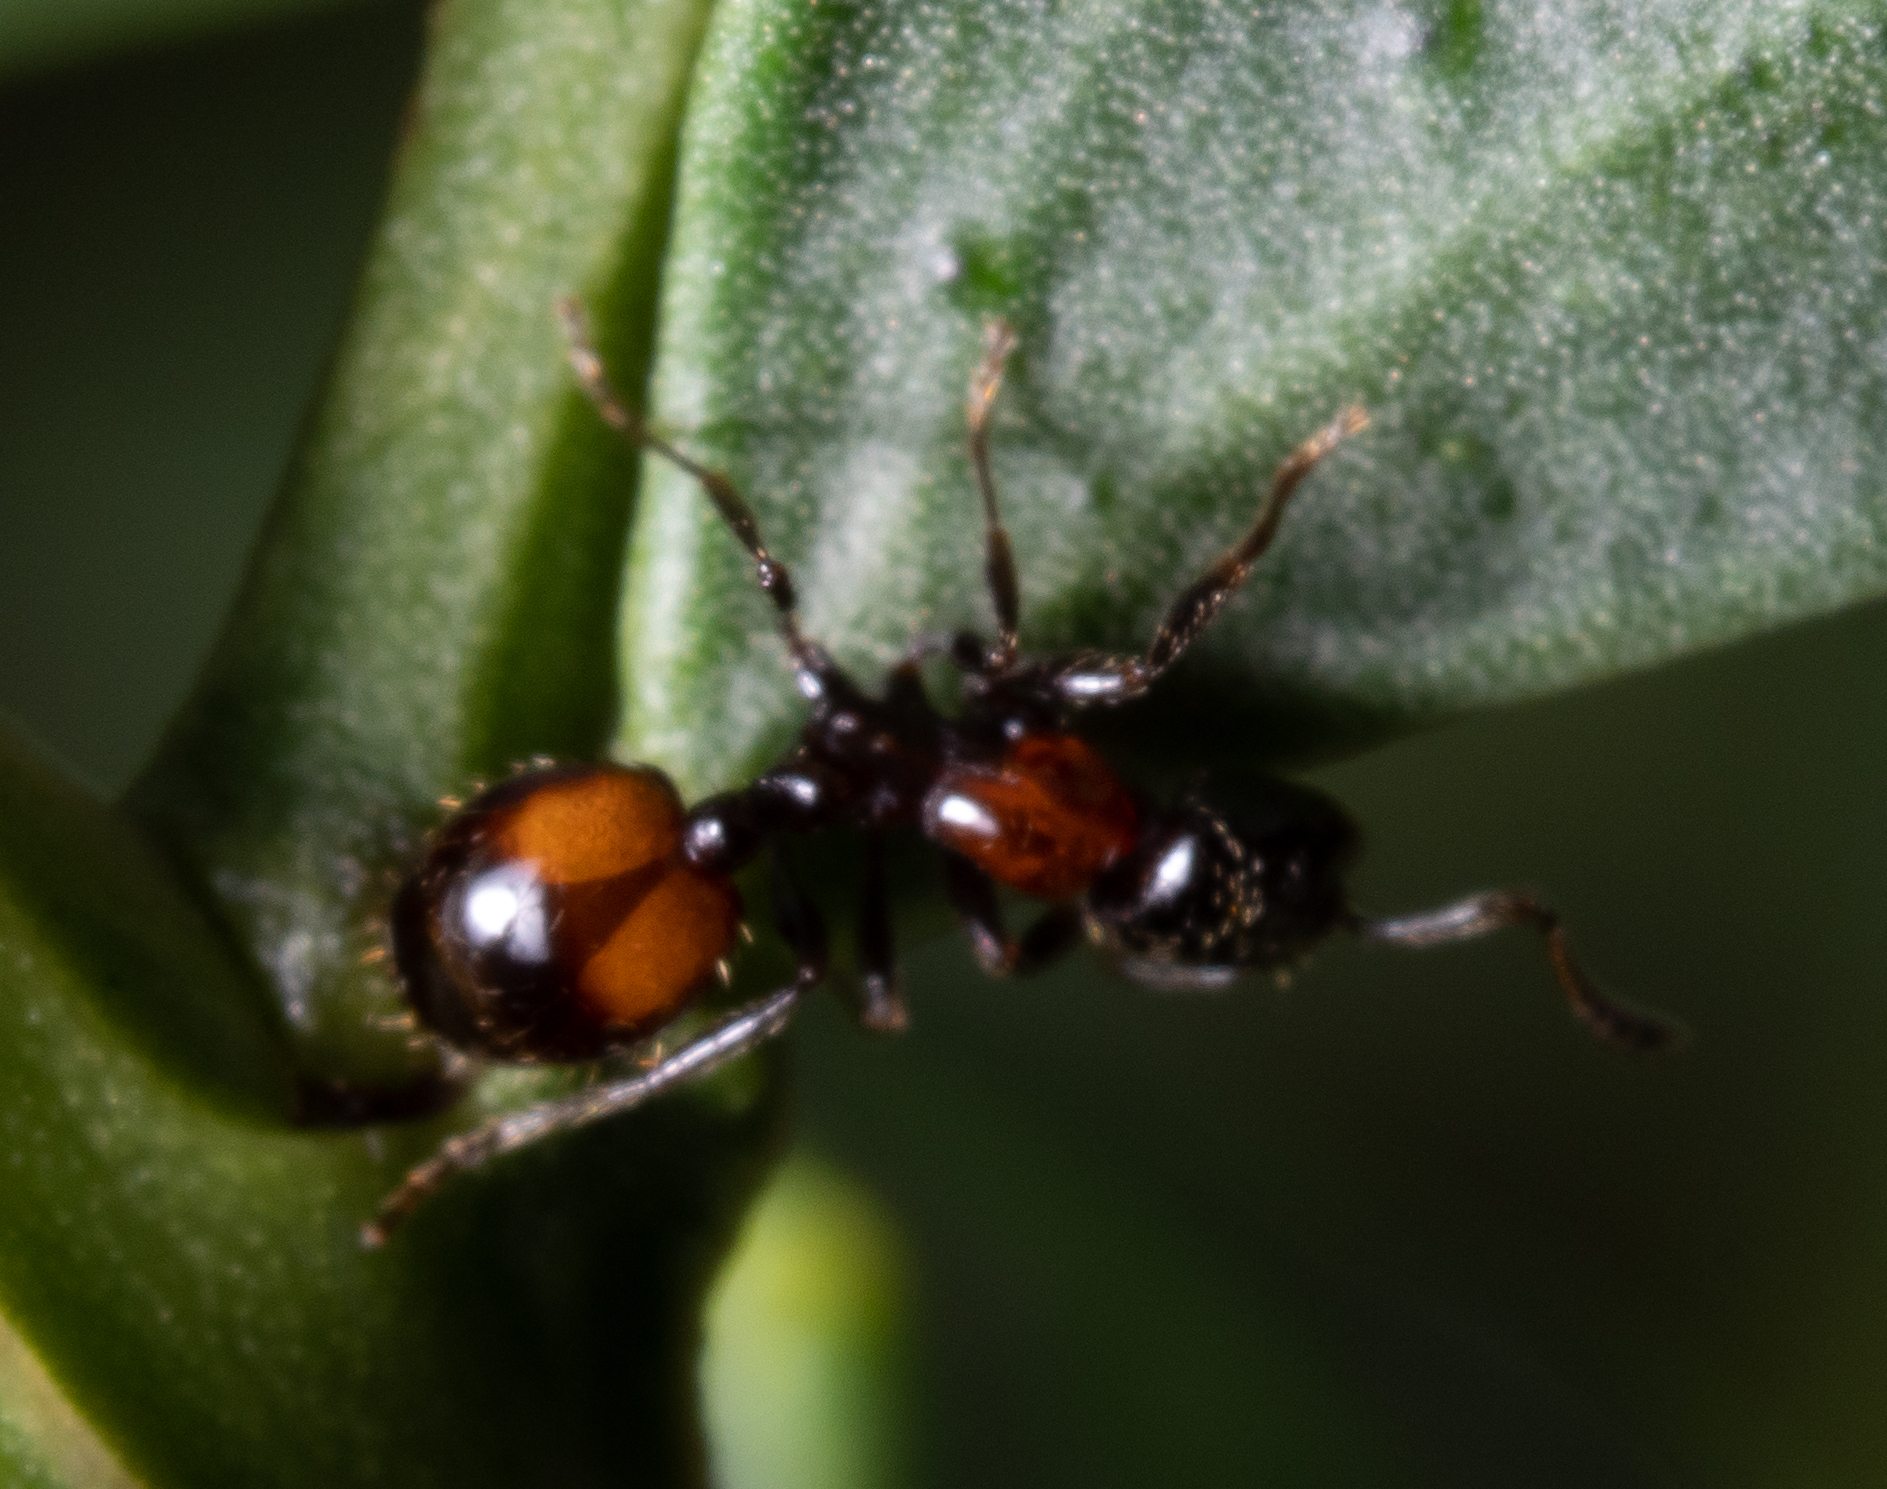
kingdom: Animalia
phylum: Arthropoda
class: Insecta
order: Hymenoptera
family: Formicidae
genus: Chelaner
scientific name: Chelaner
